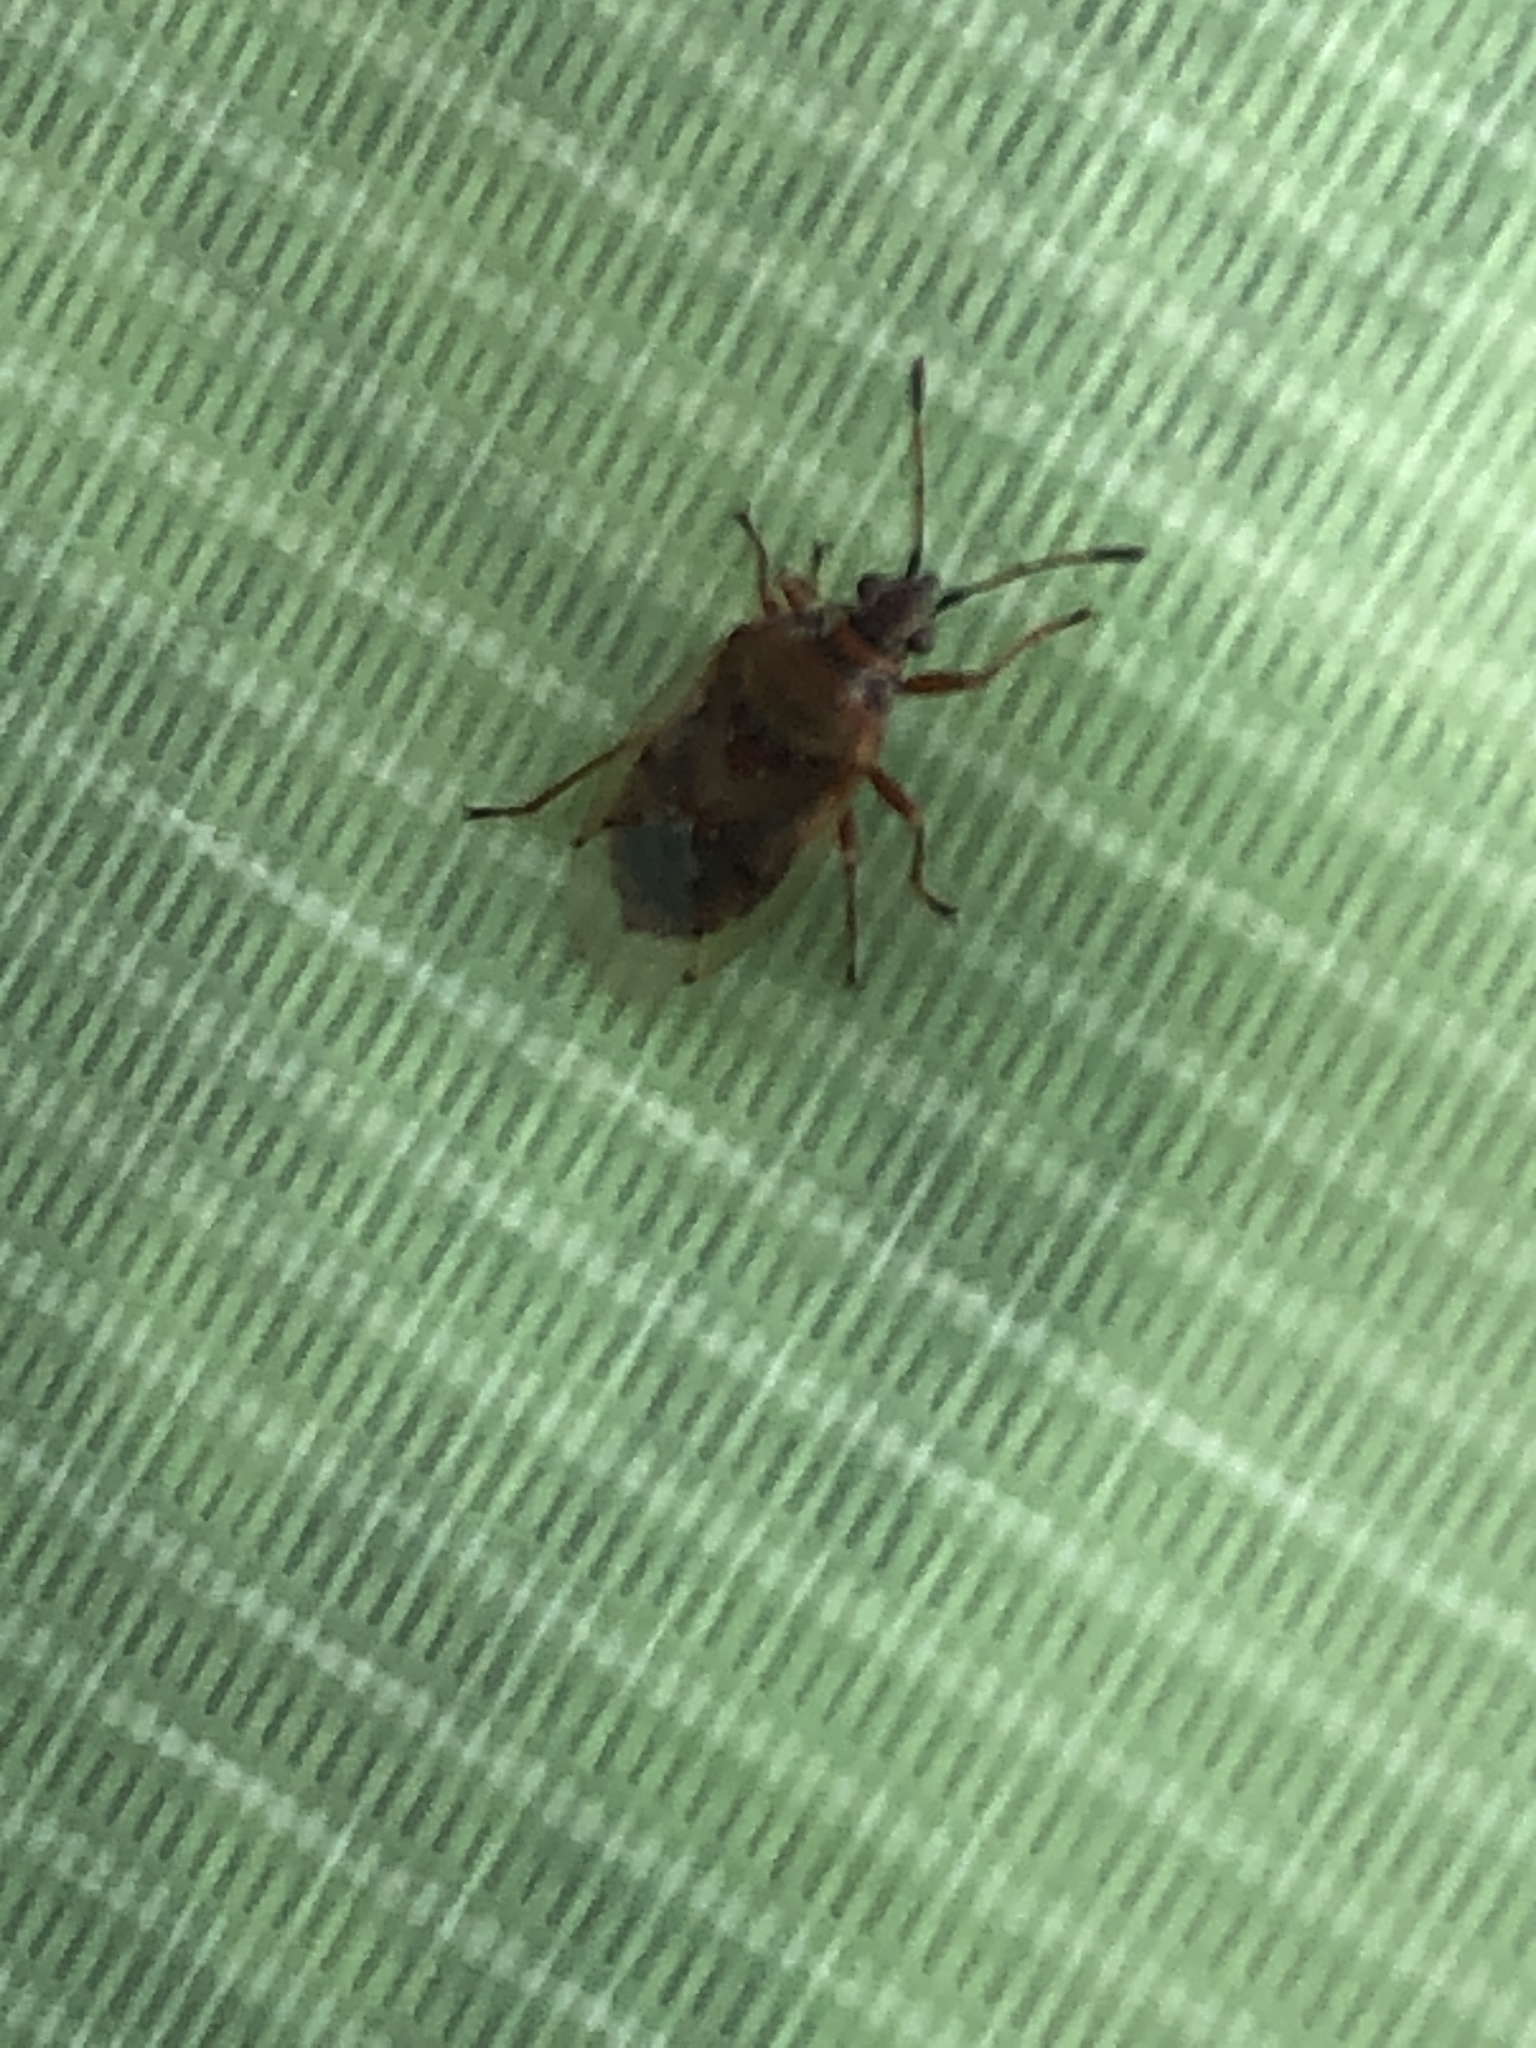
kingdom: Animalia
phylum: Arthropoda
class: Insecta
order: Hemiptera
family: Lygaeidae
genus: Kleidocerys
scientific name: Kleidocerys resedae
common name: Birch catkin bug
